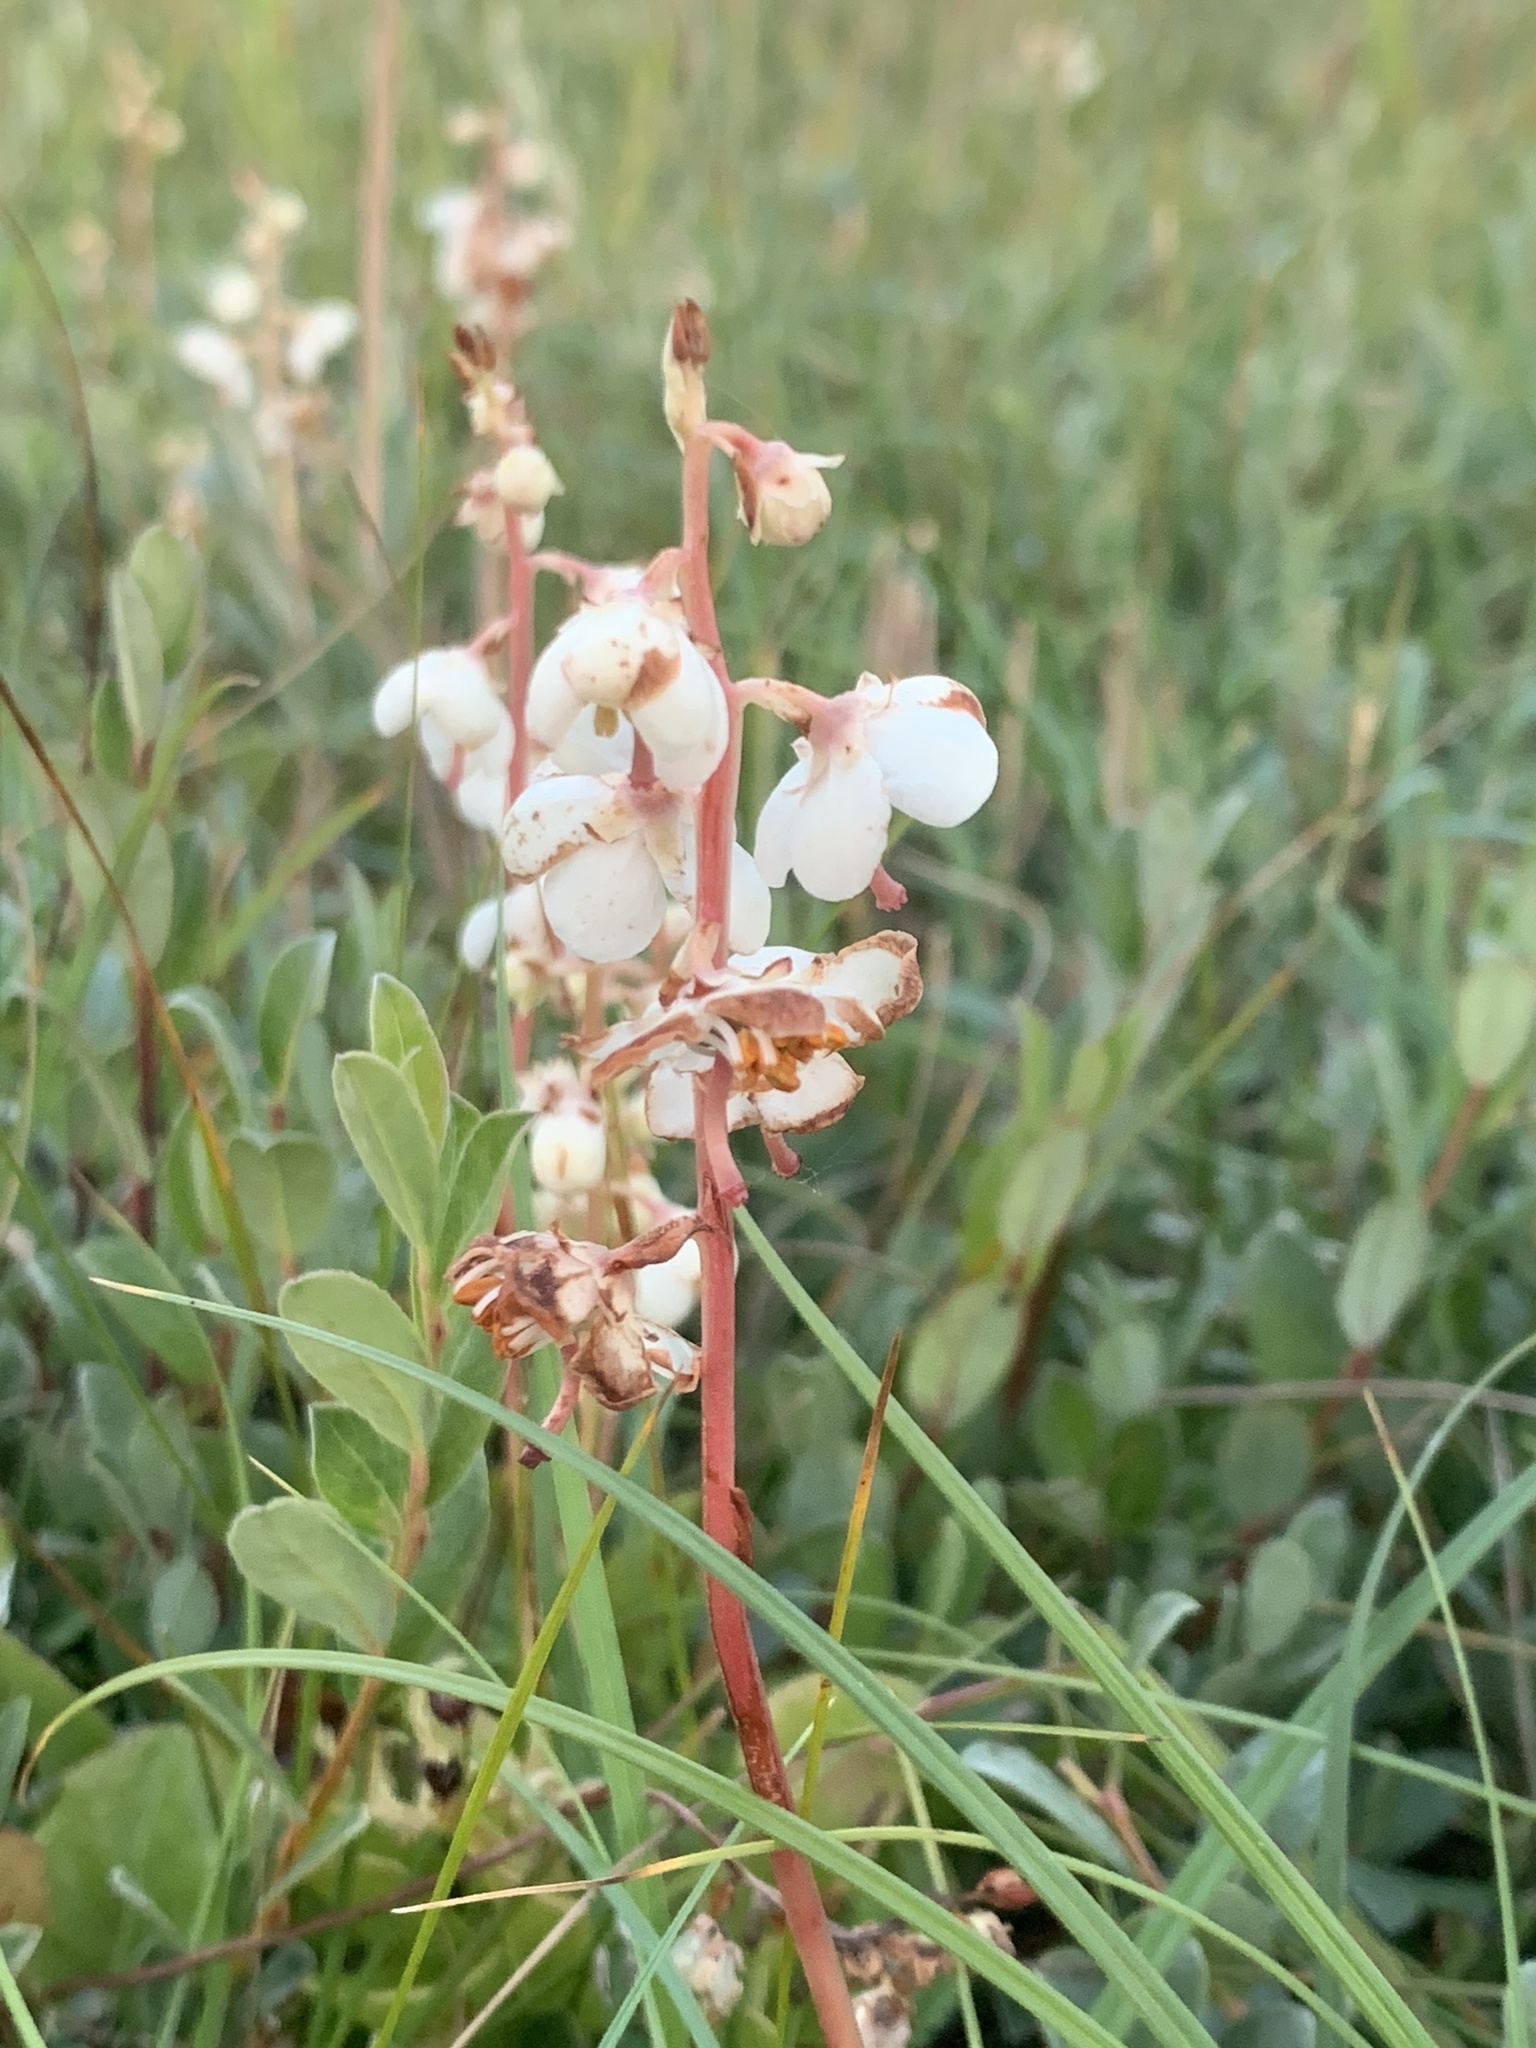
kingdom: Plantae
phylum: Tracheophyta
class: Magnoliopsida
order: Ericales
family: Ericaceae
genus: Pyrola
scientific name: Pyrola rotundifolia
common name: Round-leaved wintergreen
